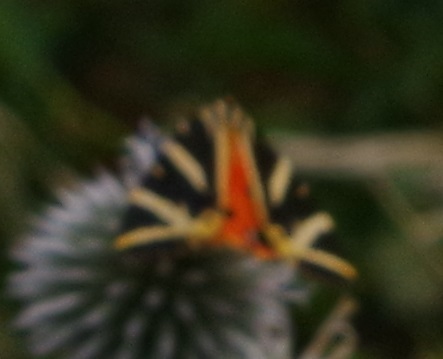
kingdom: Animalia
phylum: Arthropoda
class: Insecta
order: Lepidoptera
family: Erebidae
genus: Euplagia
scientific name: Euplagia quadripunctaria
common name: Jersey tiger
